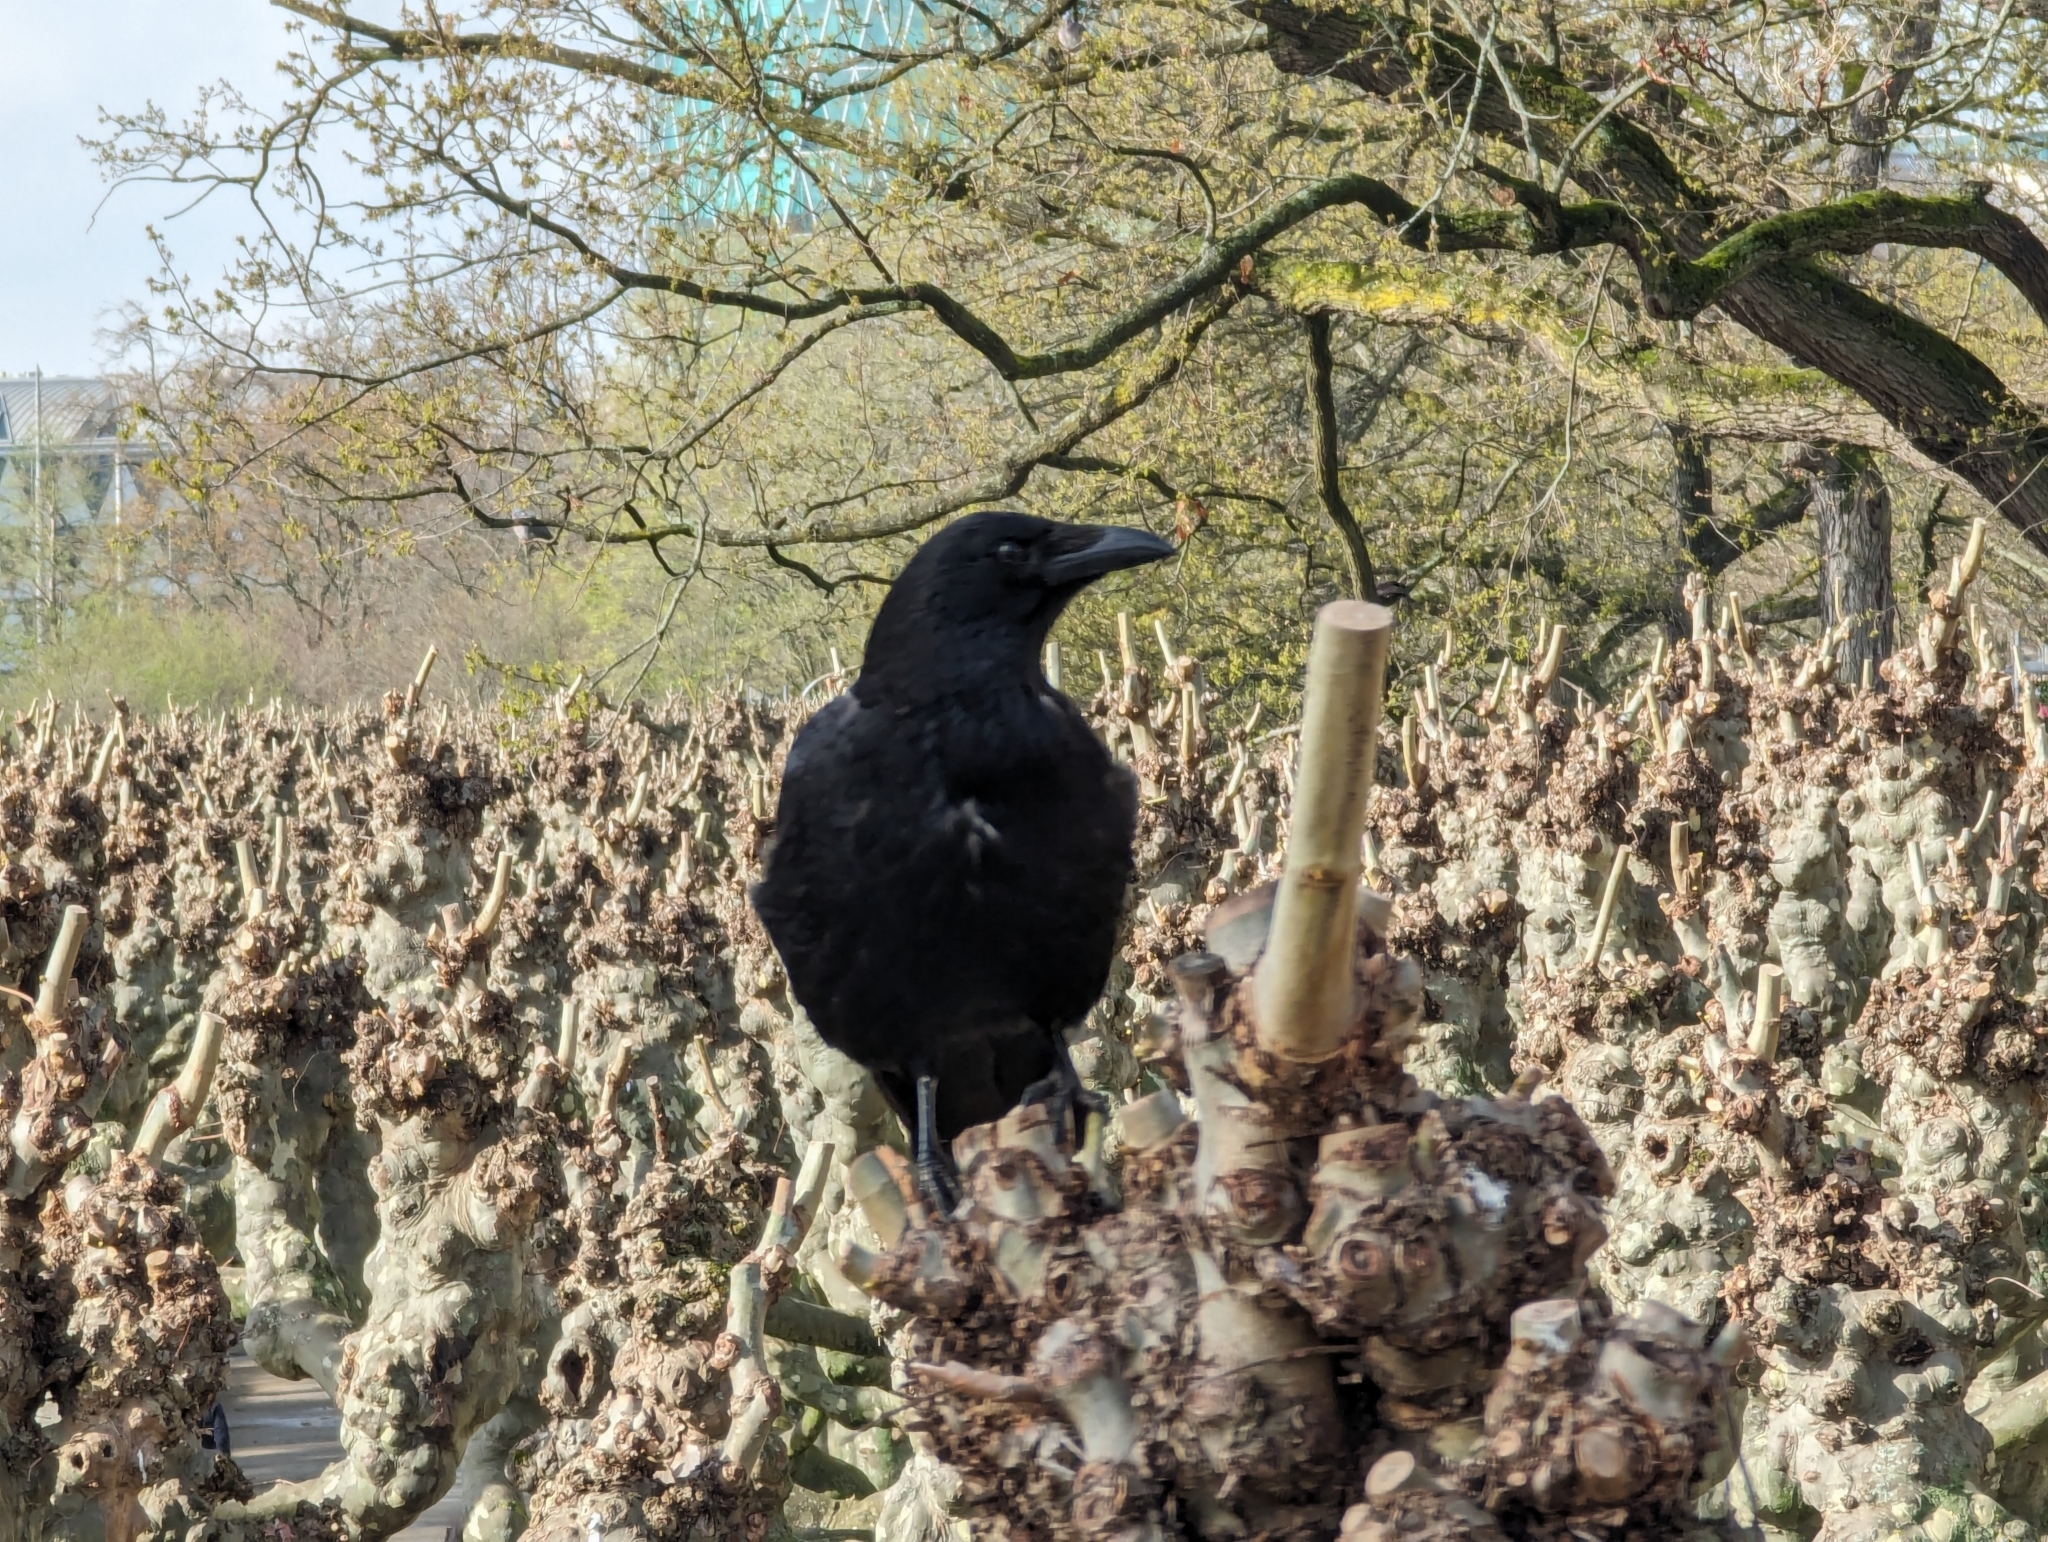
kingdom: Animalia
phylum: Chordata
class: Aves
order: Passeriformes
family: Corvidae
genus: Corvus
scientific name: Corvus corone
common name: Carrion crow
